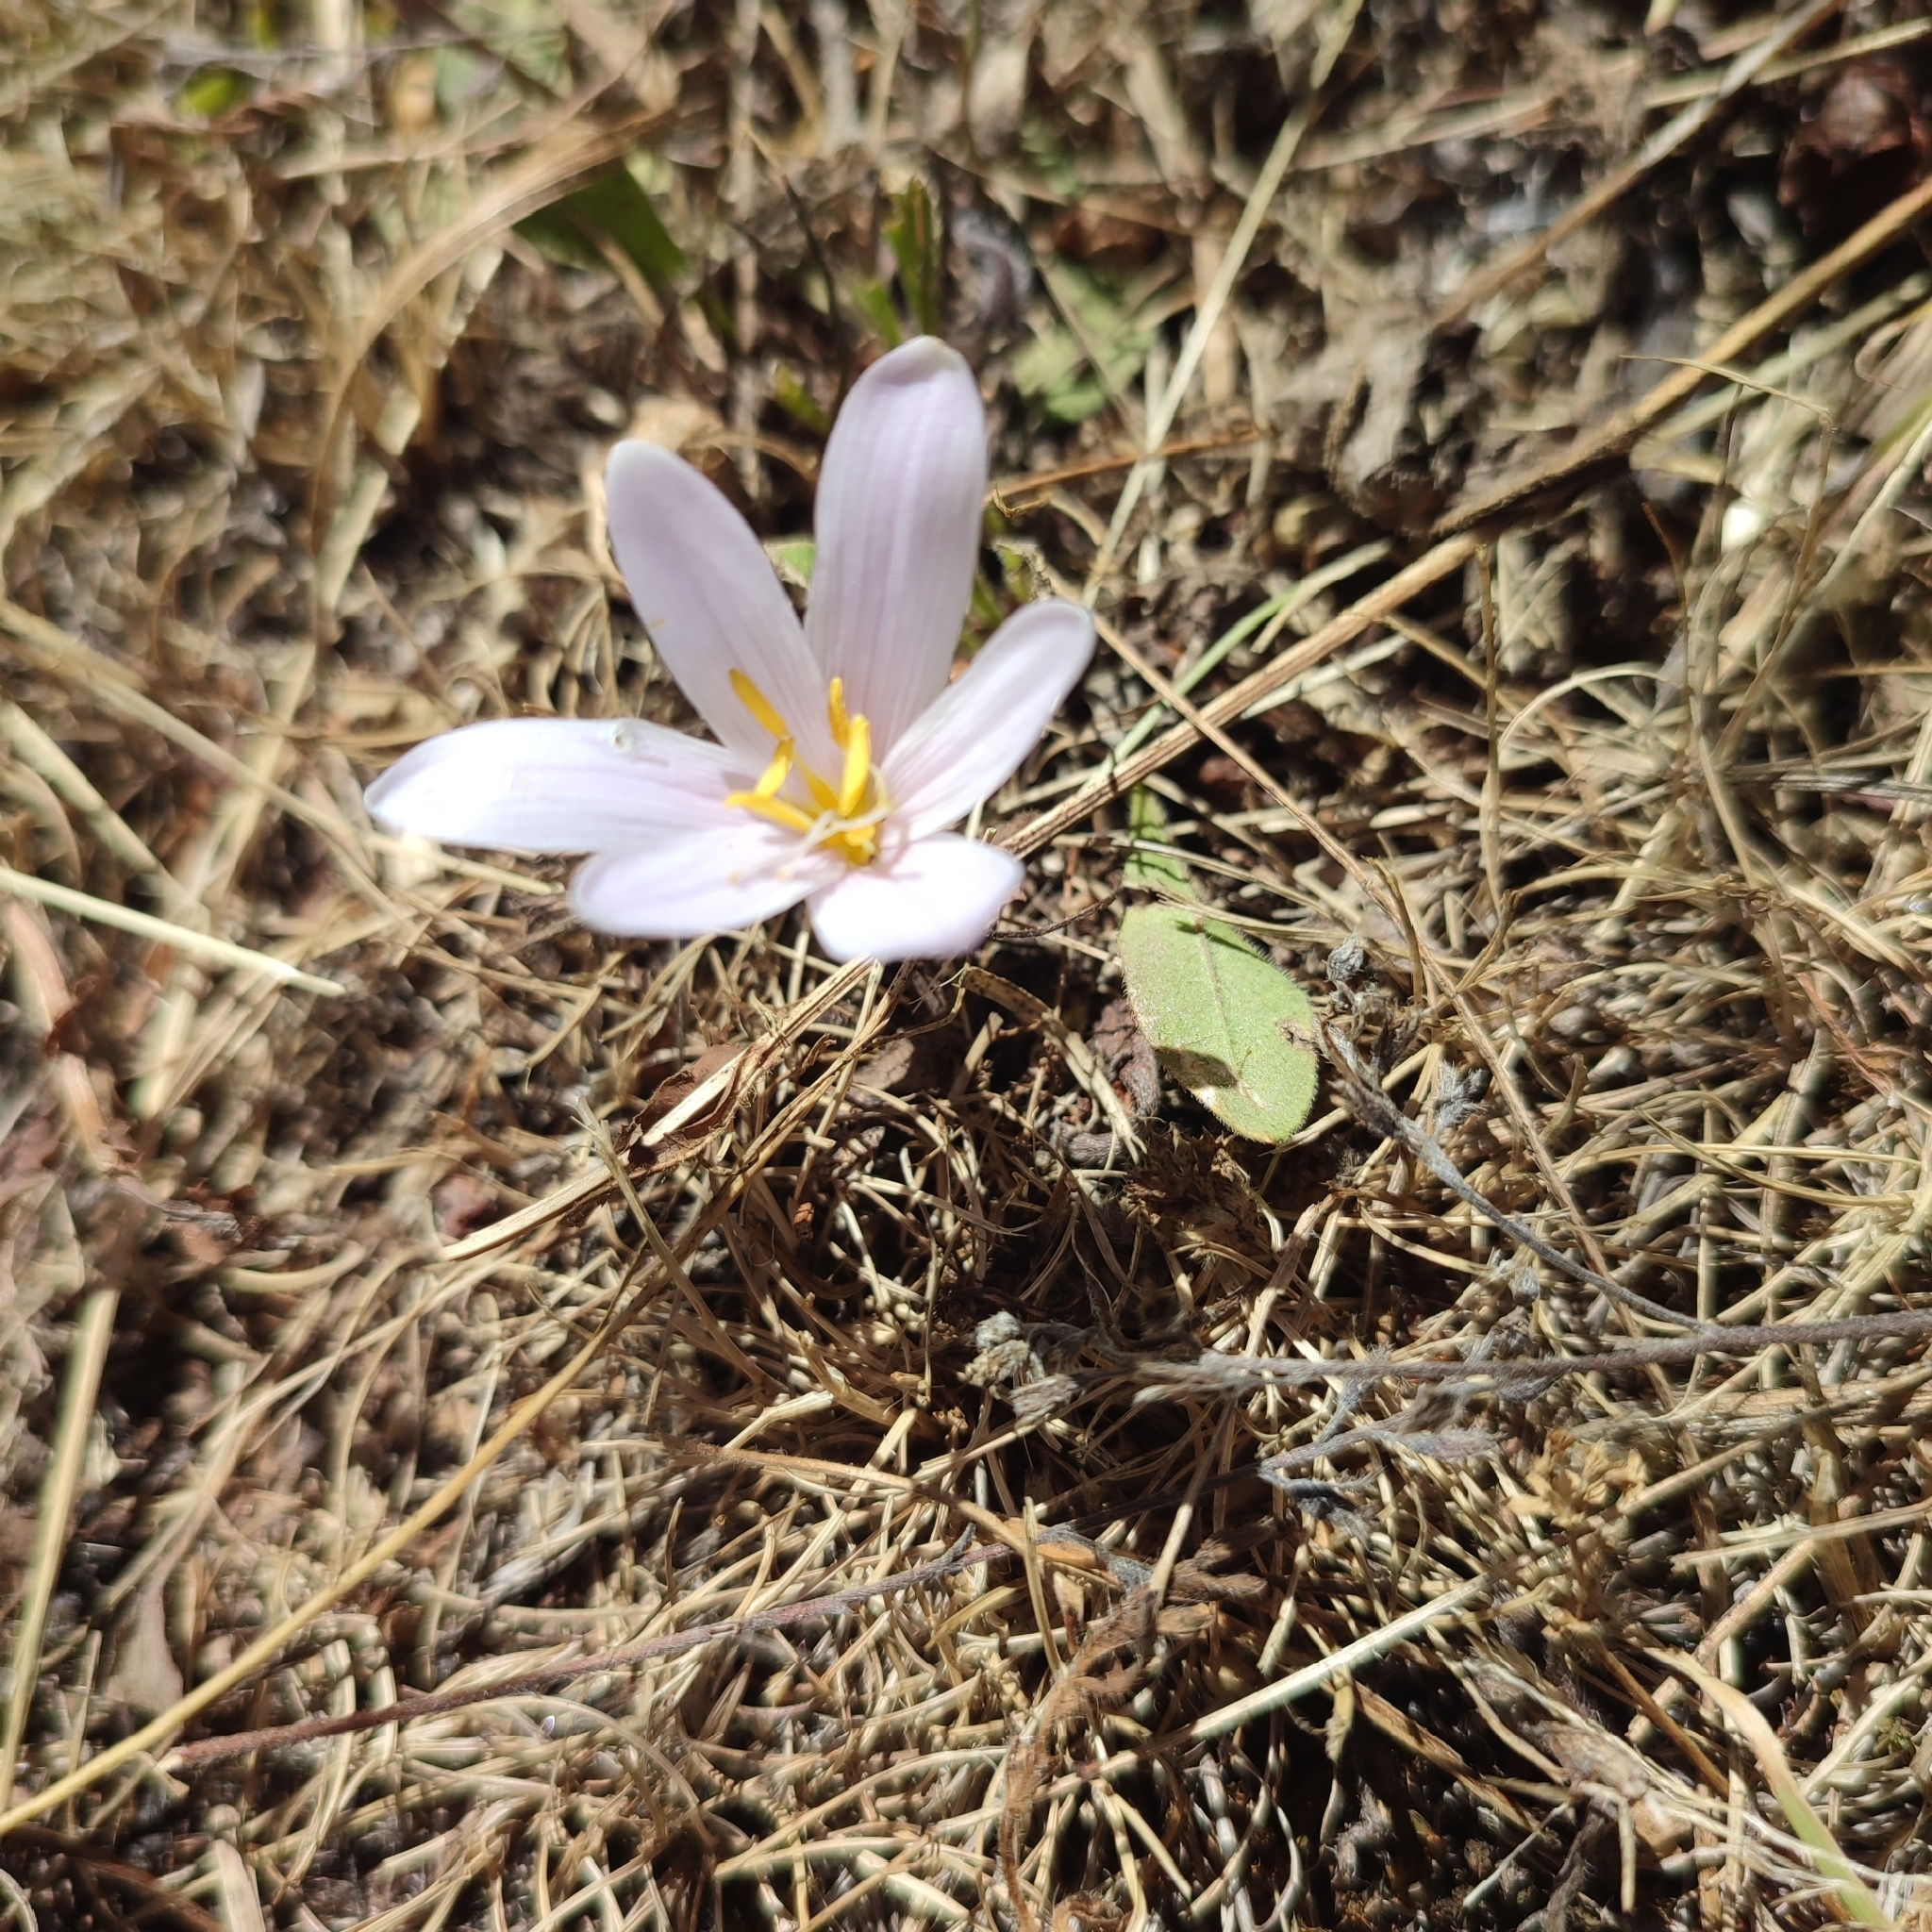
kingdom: Plantae
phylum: Tracheophyta
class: Liliopsida
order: Liliales
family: Colchicaceae
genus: Colchicum
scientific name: Colchicum alpinum
